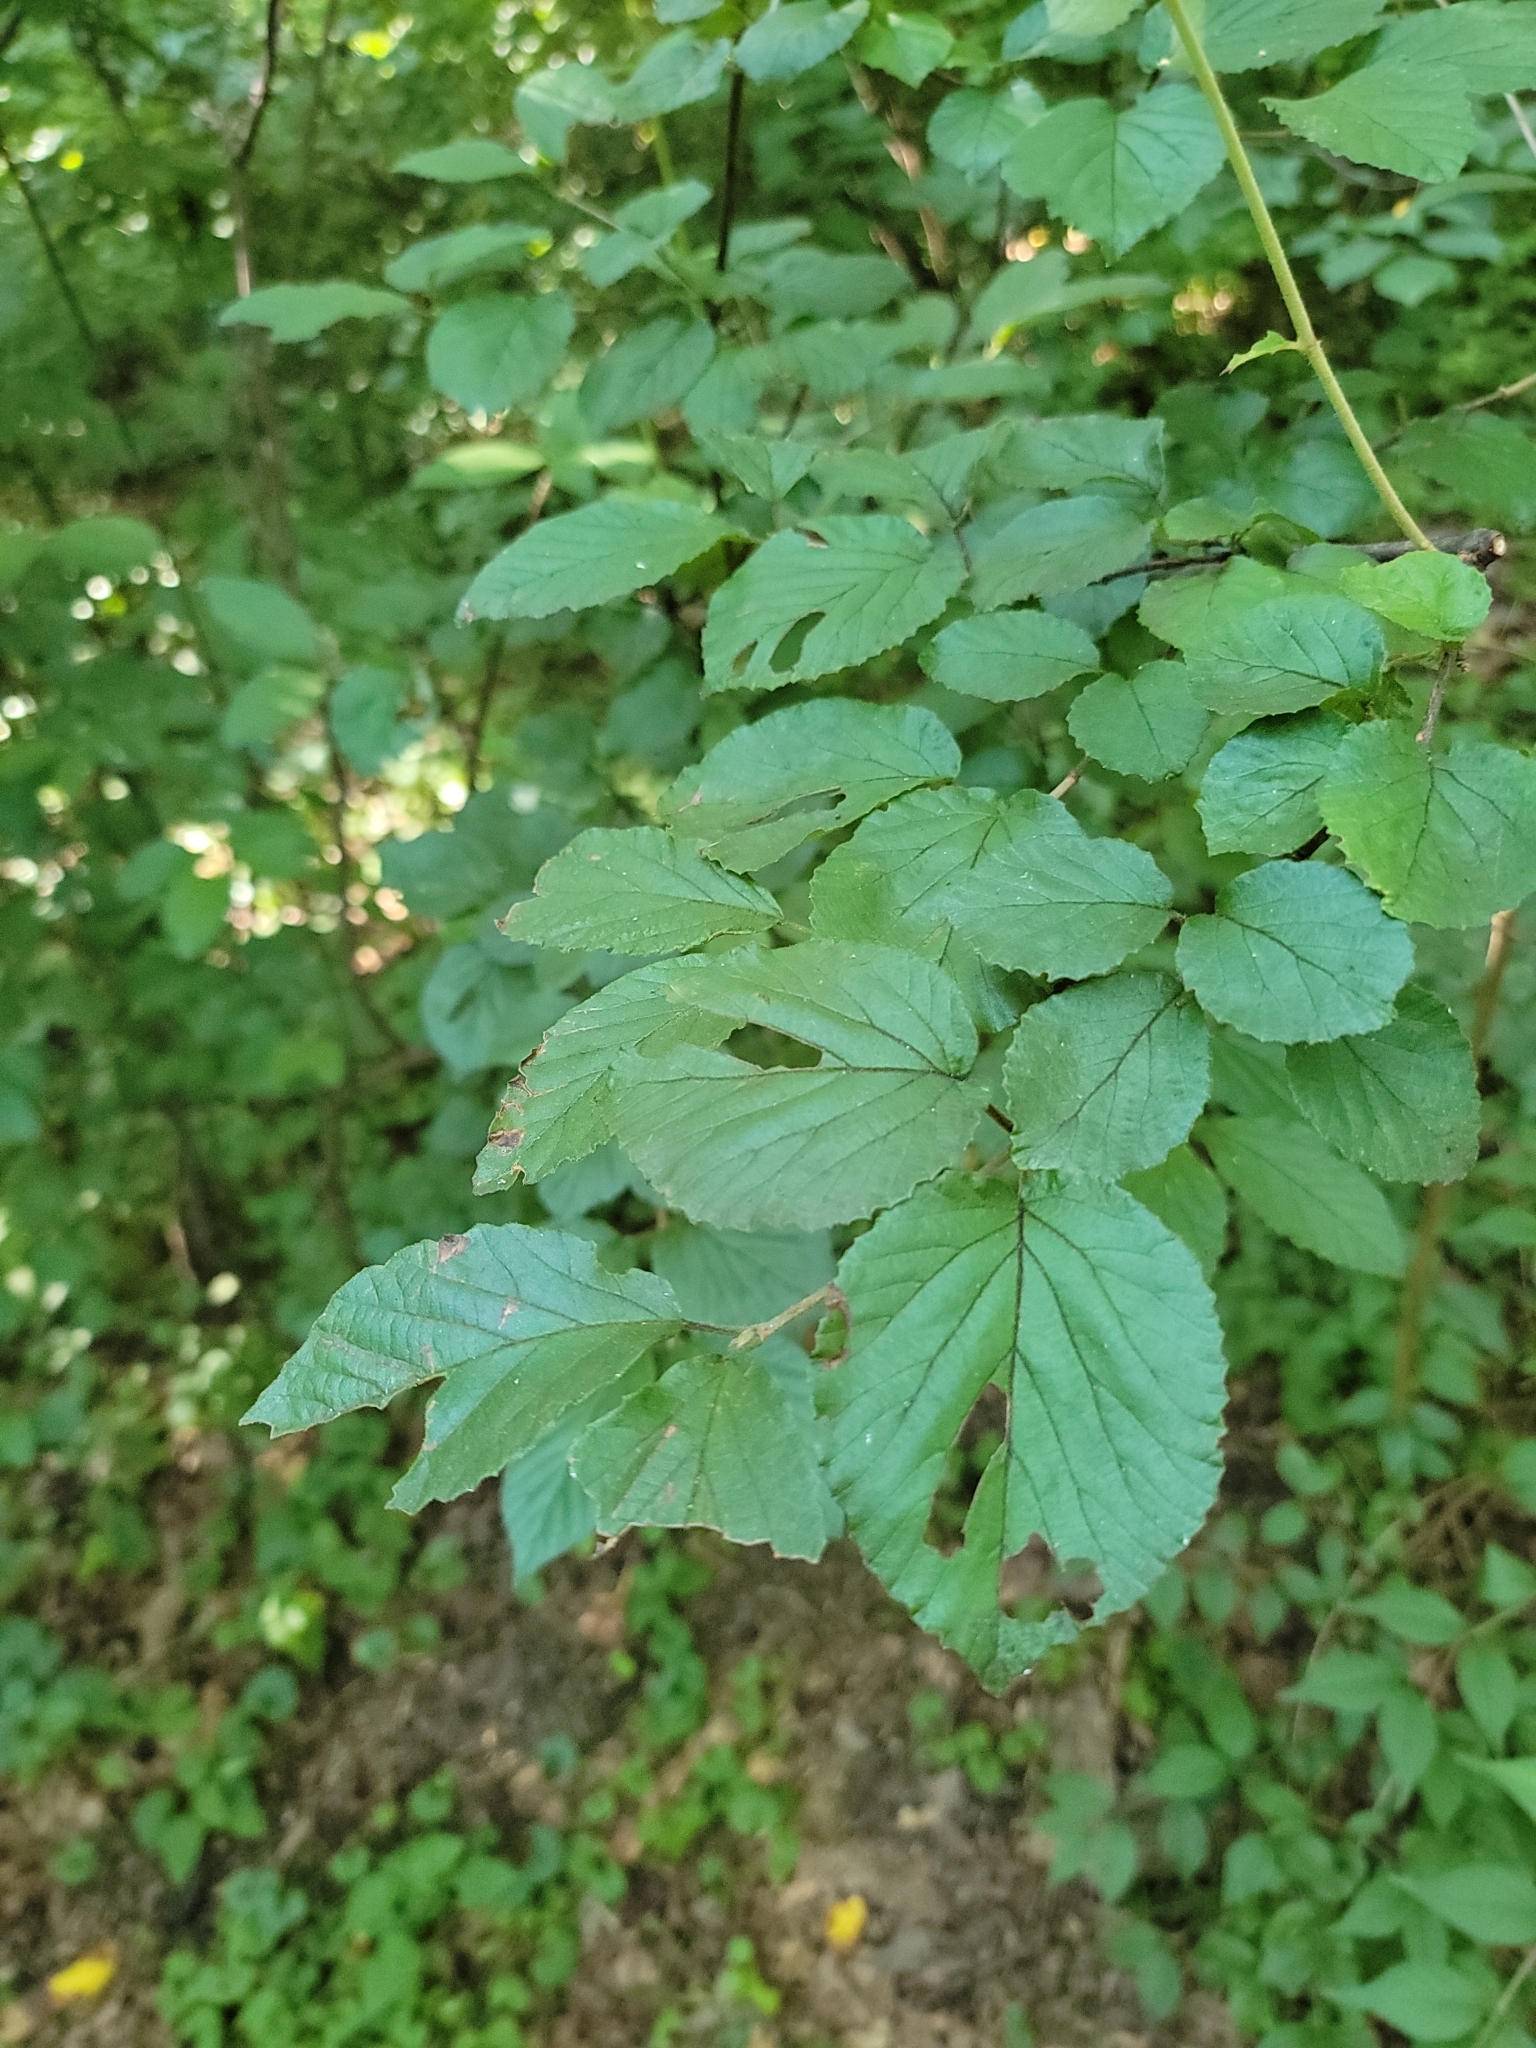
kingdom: Plantae
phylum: Tracheophyta
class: Magnoliopsida
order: Dipsacales
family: Viburnaceae
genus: Viburnum
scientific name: Viburnum dilatatum
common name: Linden arrowwood
